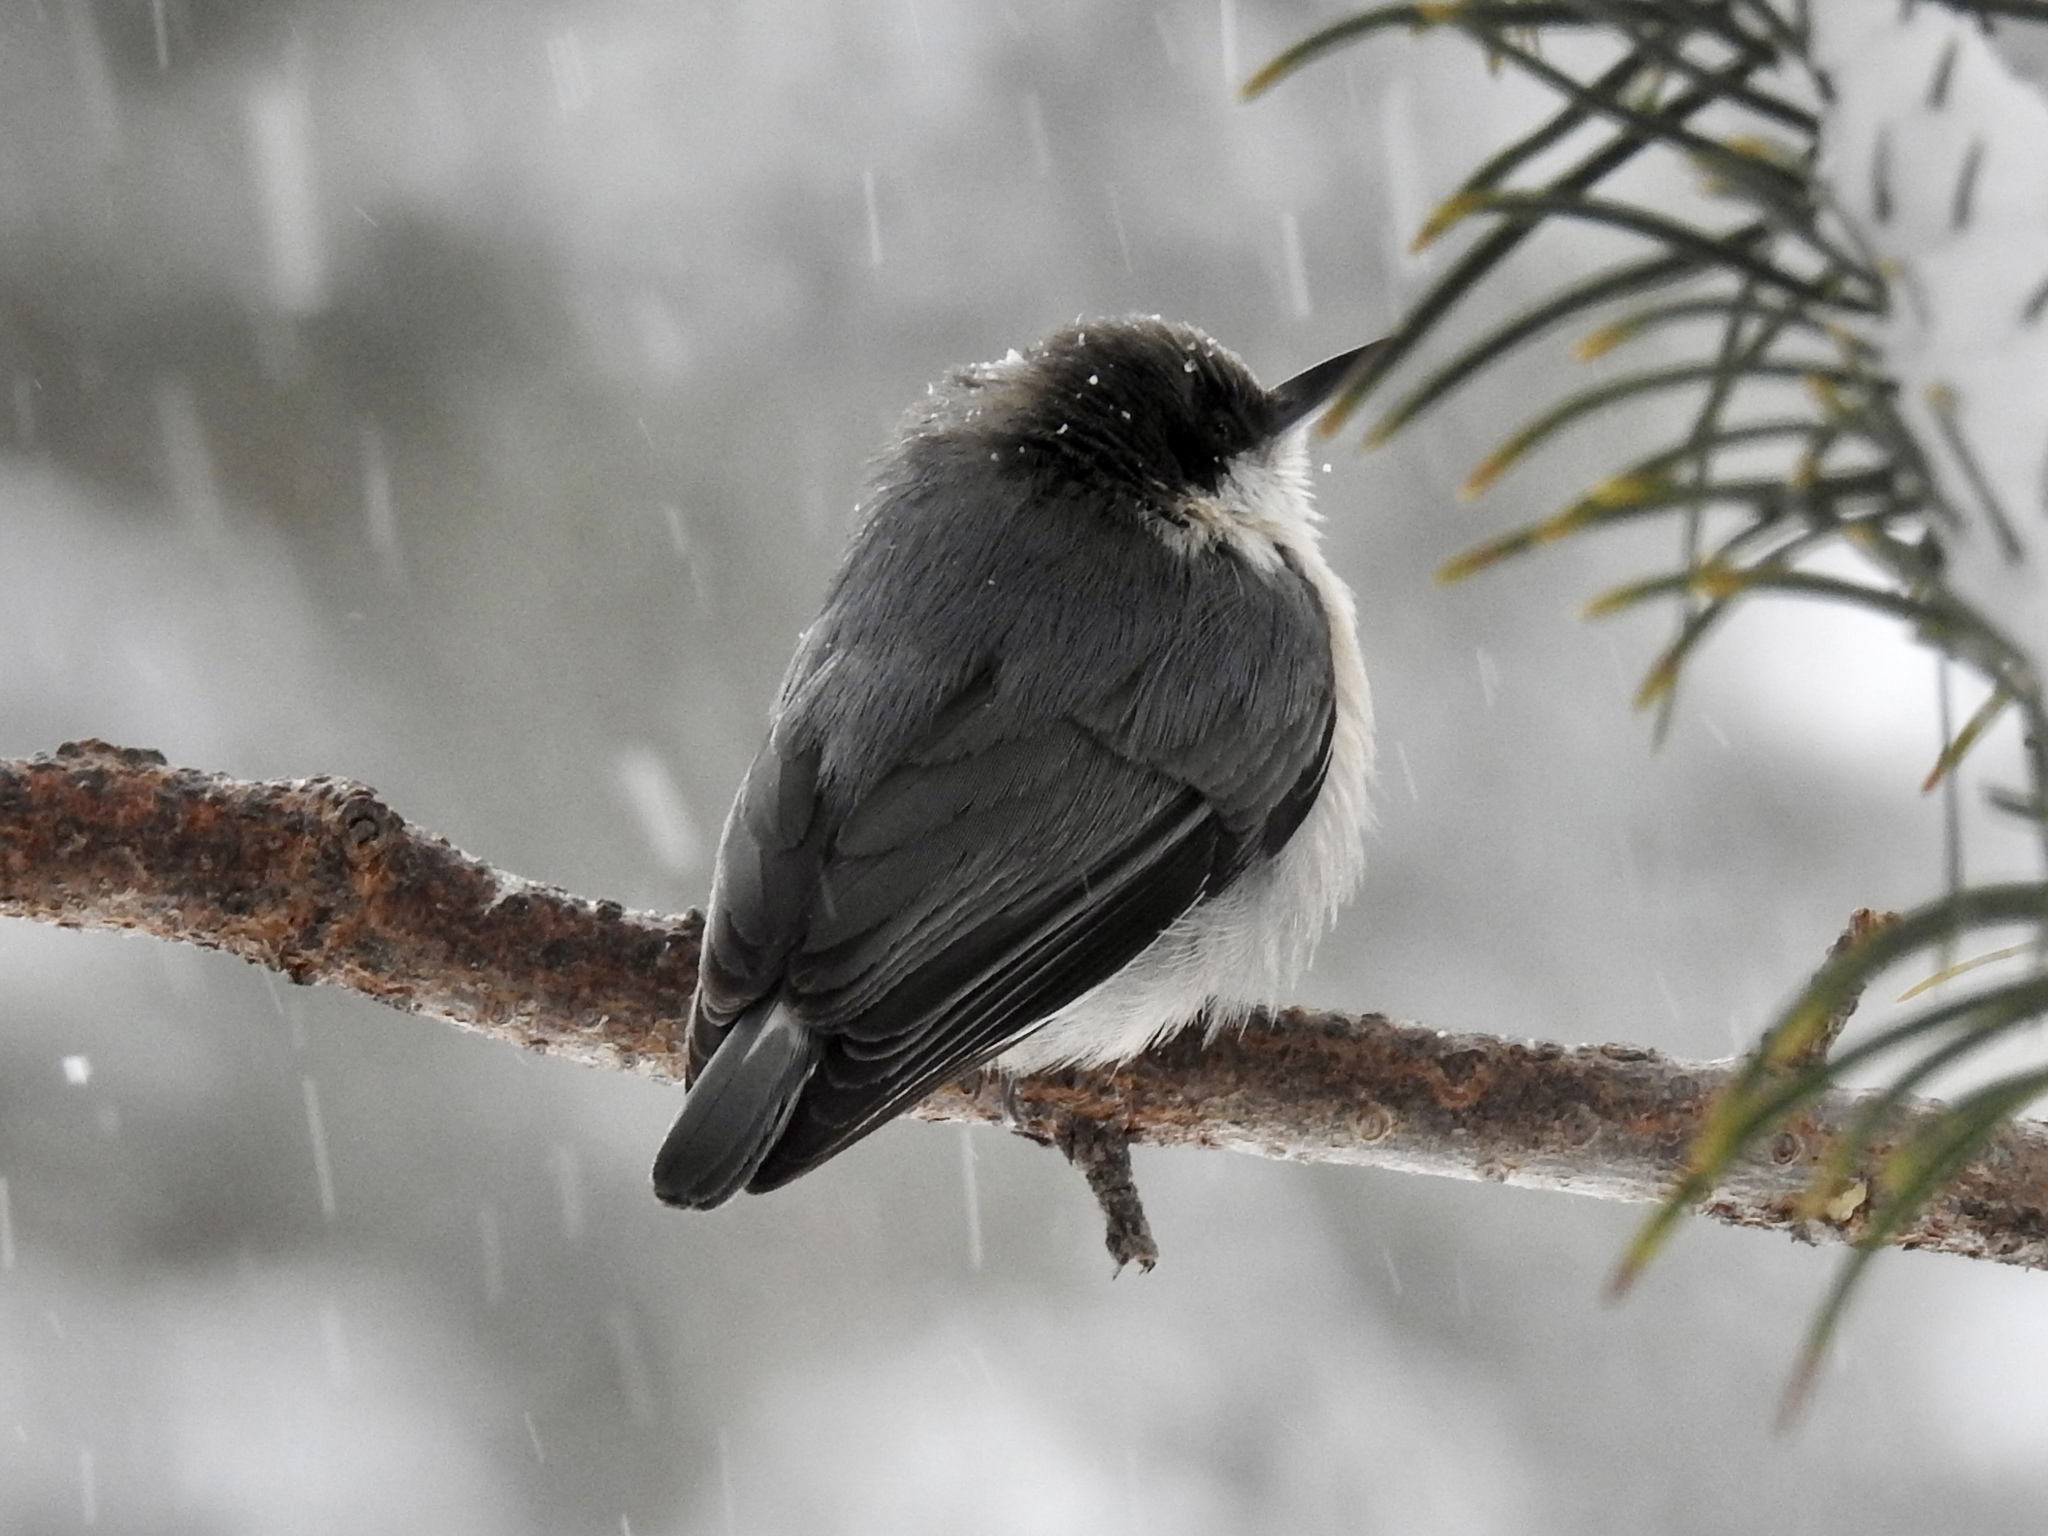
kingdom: Animalia
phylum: Chordata
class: Aves
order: Passeriformes
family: Sittidae
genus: Sitta
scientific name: Sitta pygmaea
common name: Pygmy nuthatch
